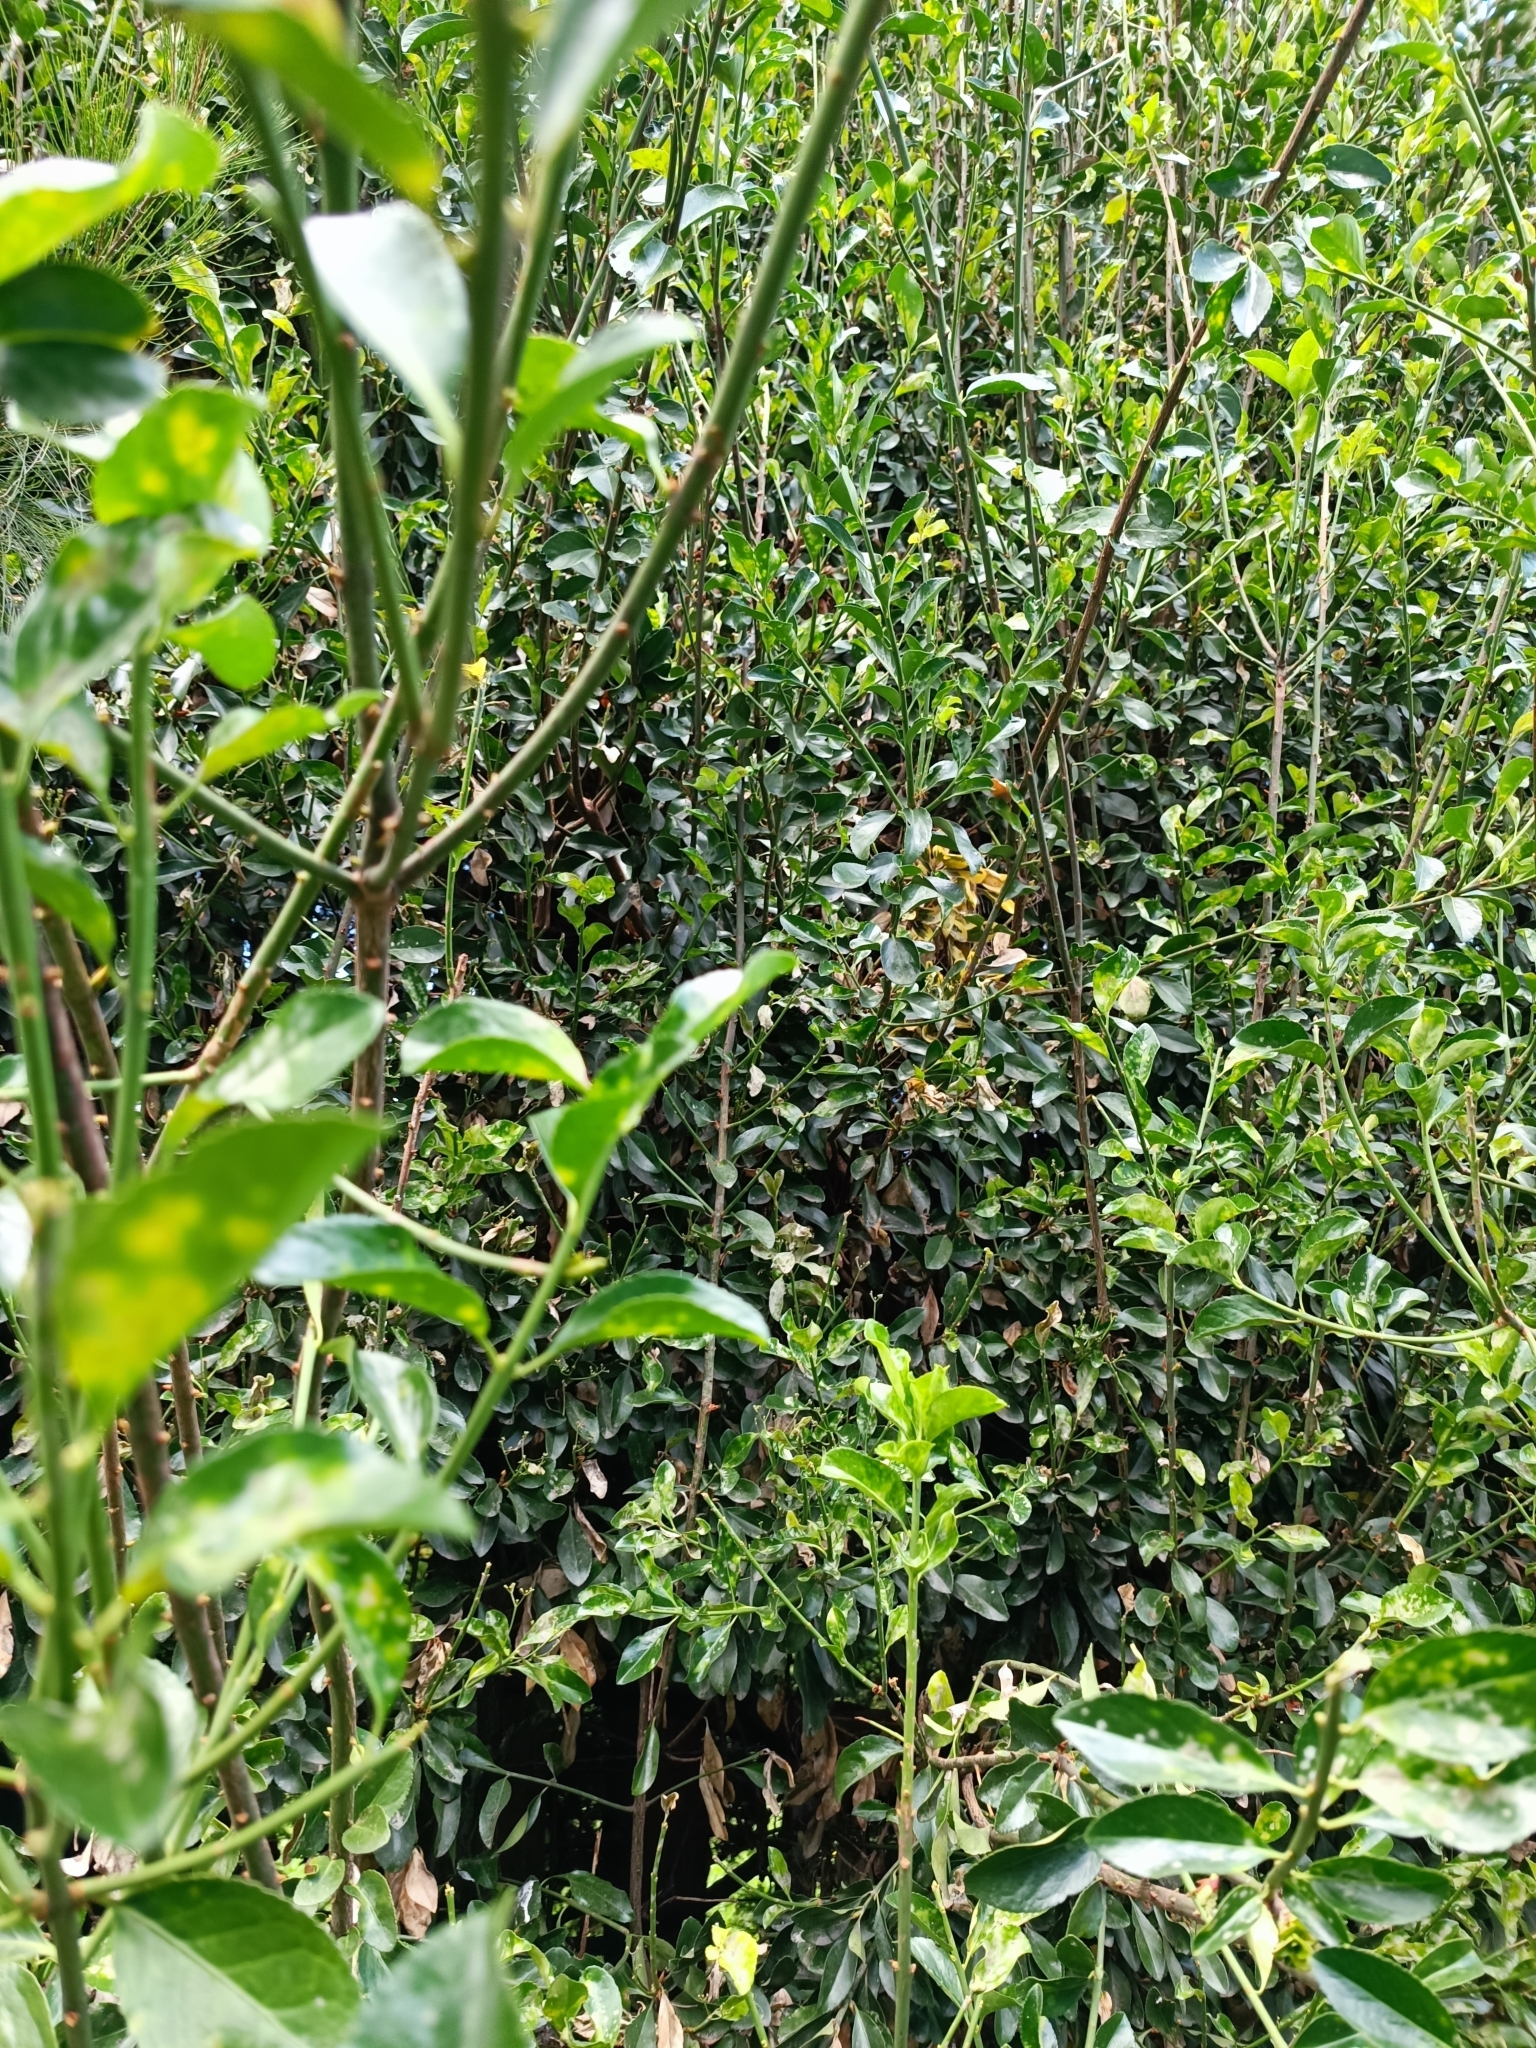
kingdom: Plantae
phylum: Tracheophyta
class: Magnoliopsida
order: Celastrales
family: Celastraceae
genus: Euonymus
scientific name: Euonymus japonicus
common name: Japanese spindletree
